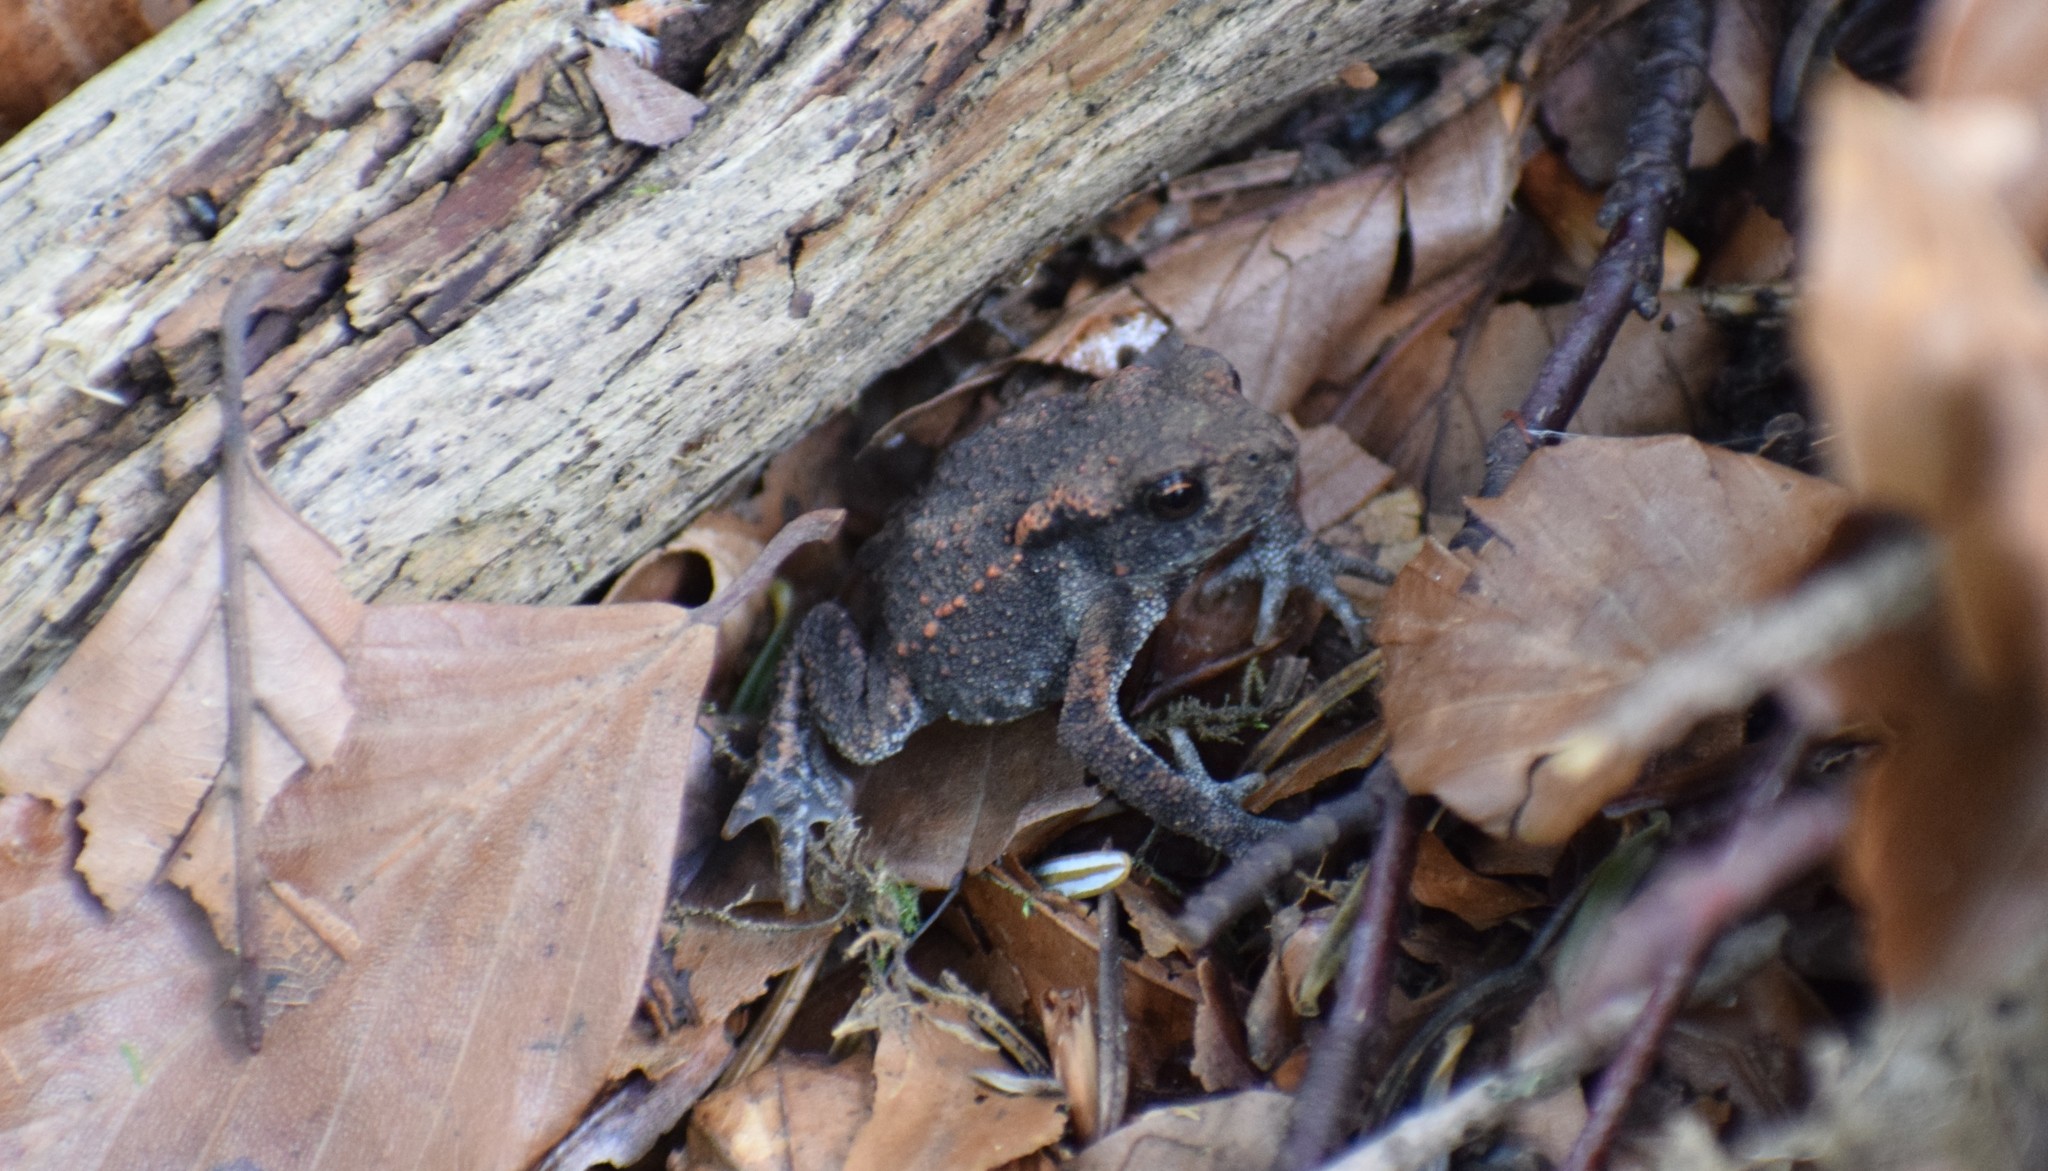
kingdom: Animalia
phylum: Chordata
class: Amphibia
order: Anura
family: Bufonidae
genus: Bufo
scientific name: Bufo bufo
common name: Common toad
